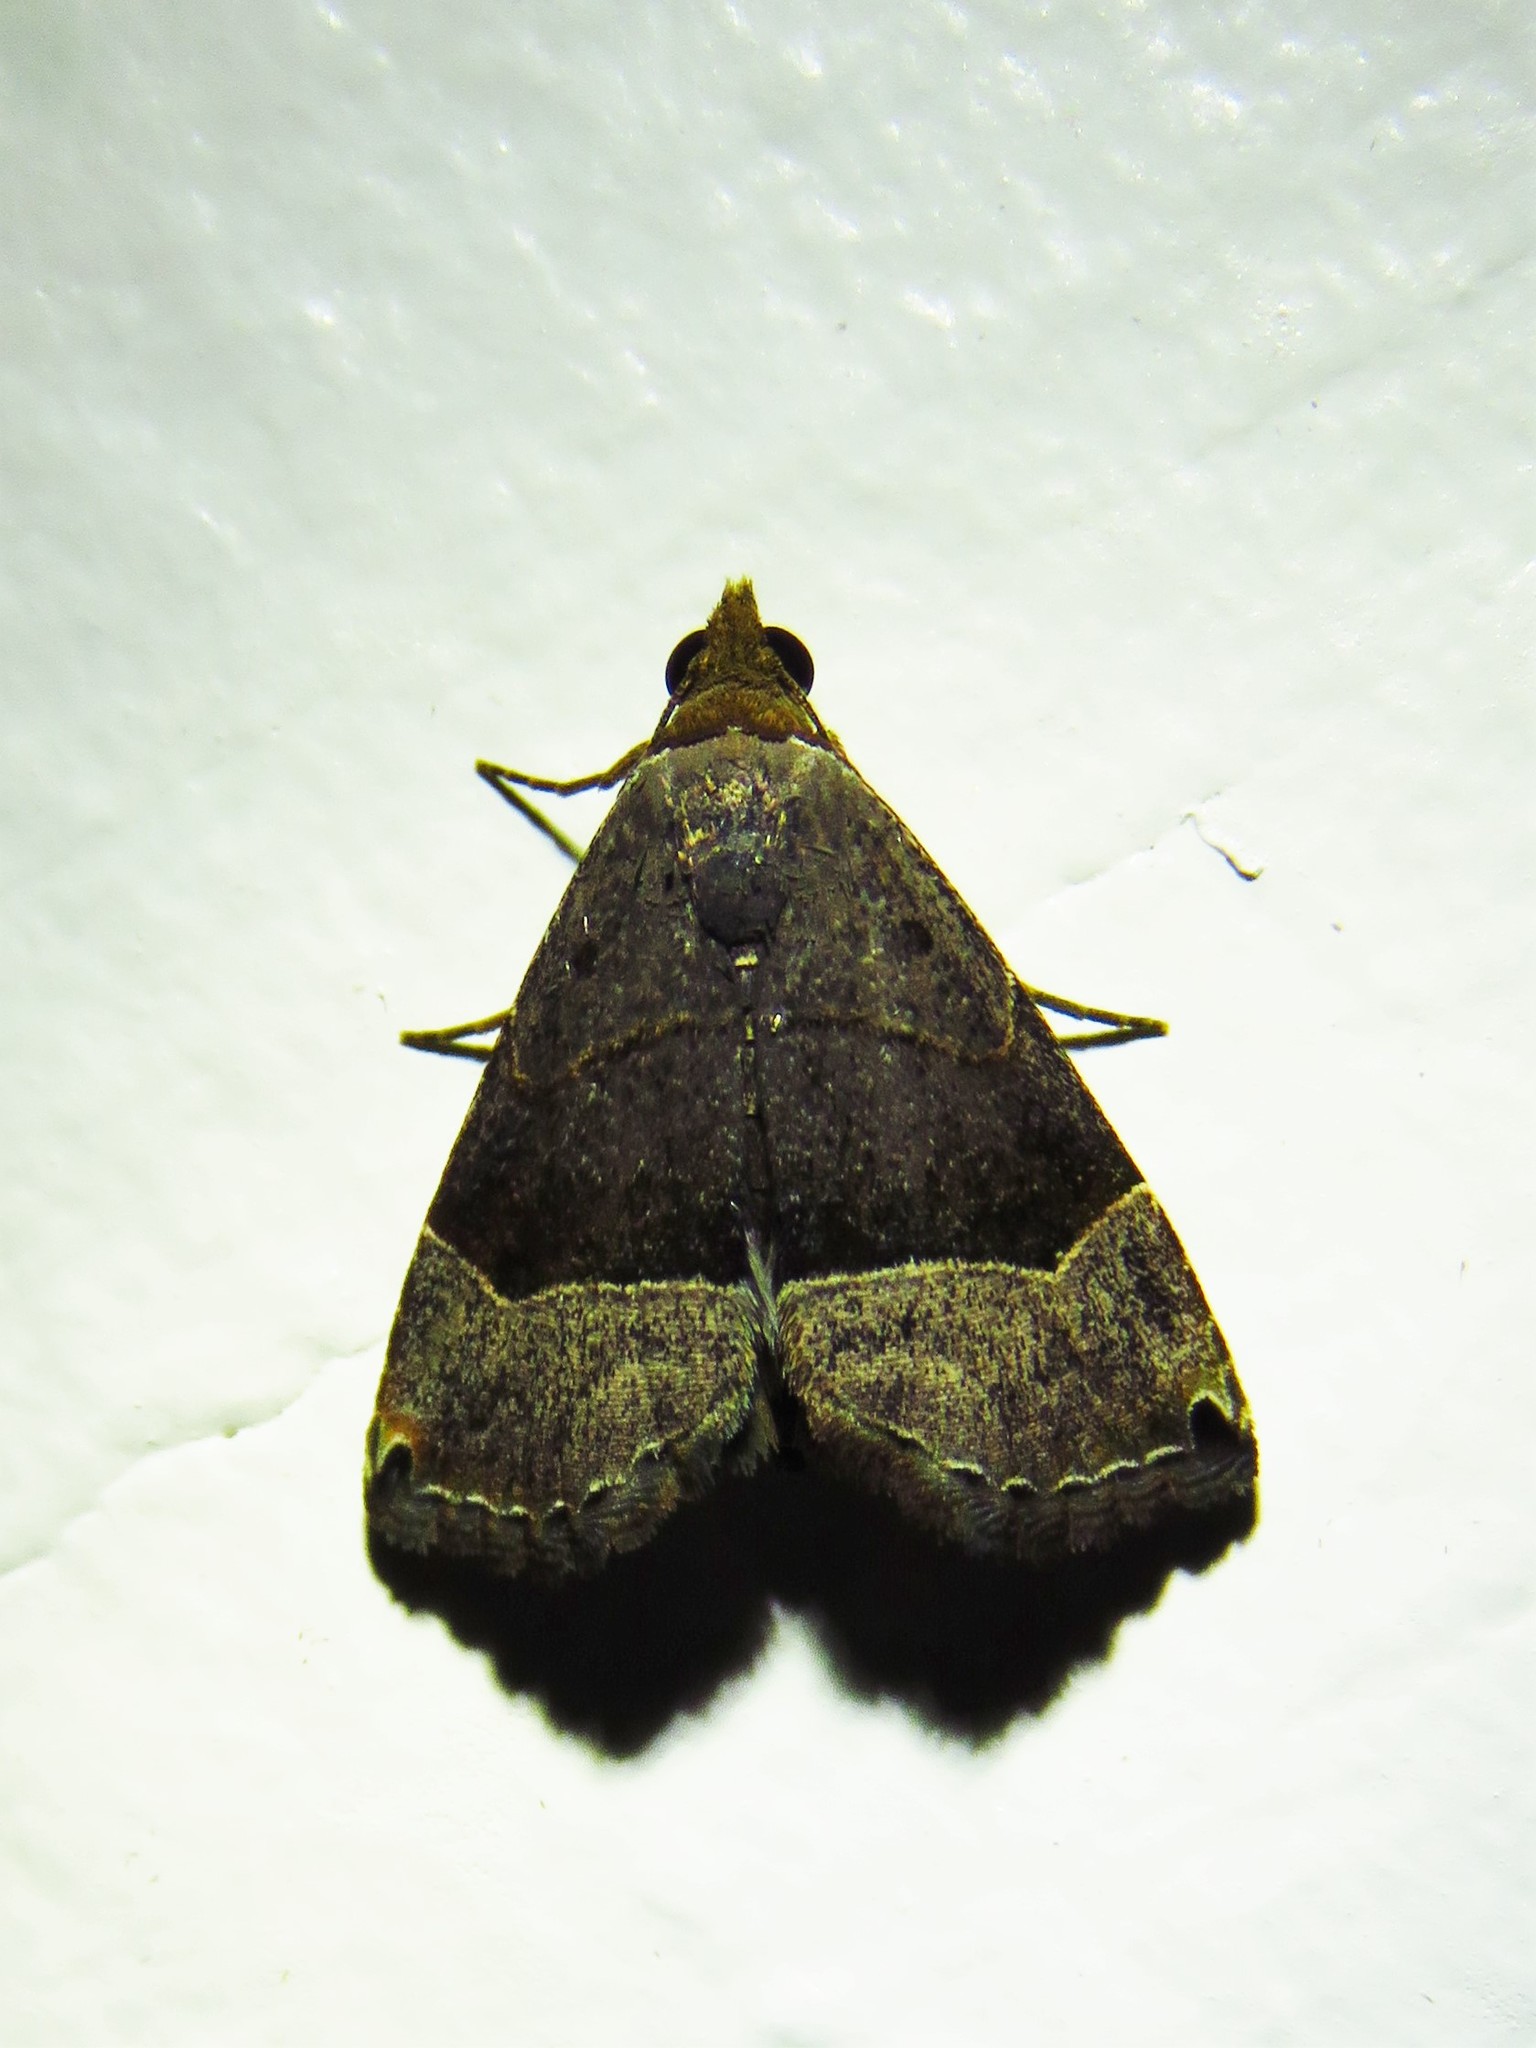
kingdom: Animalia
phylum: Arthropoda
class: Insecta
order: Lepidoptera
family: Noctuidae
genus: Abacena
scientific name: Abacena mundula
